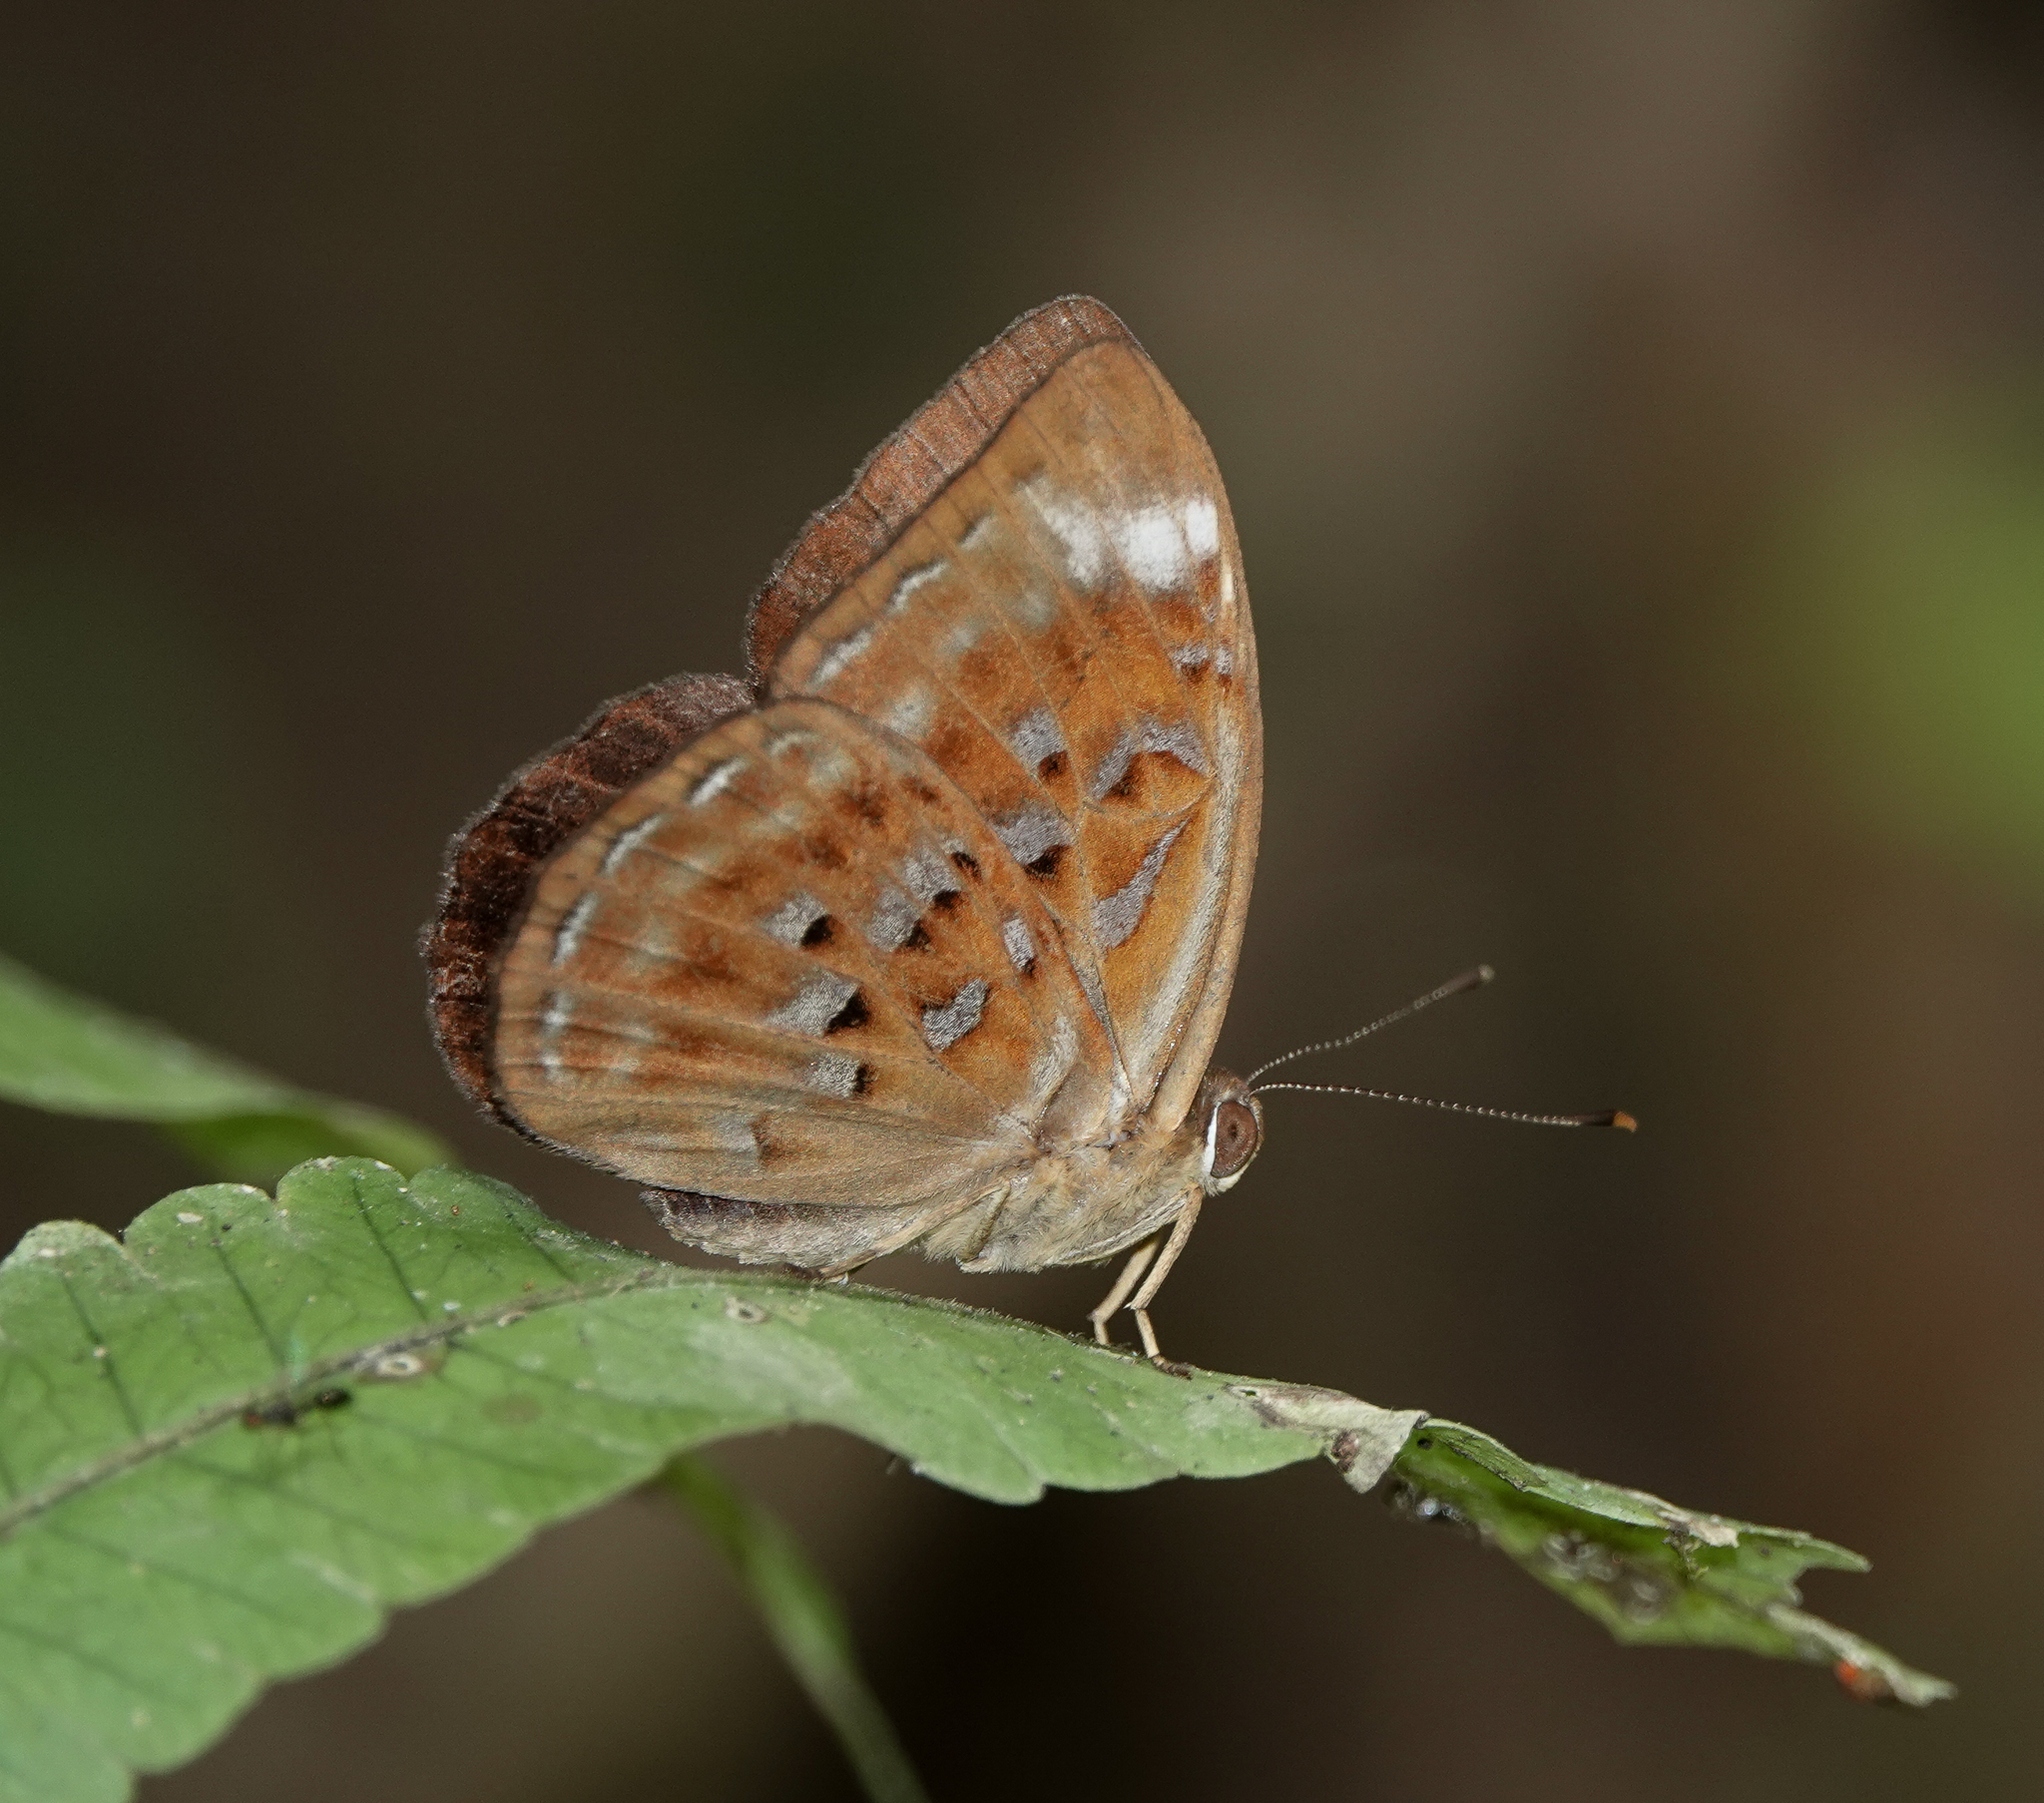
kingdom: Animalia
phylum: Arthropoda
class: Insecta
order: Lepidoptera
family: Erebidae
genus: Dysschema
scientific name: Dysschema
